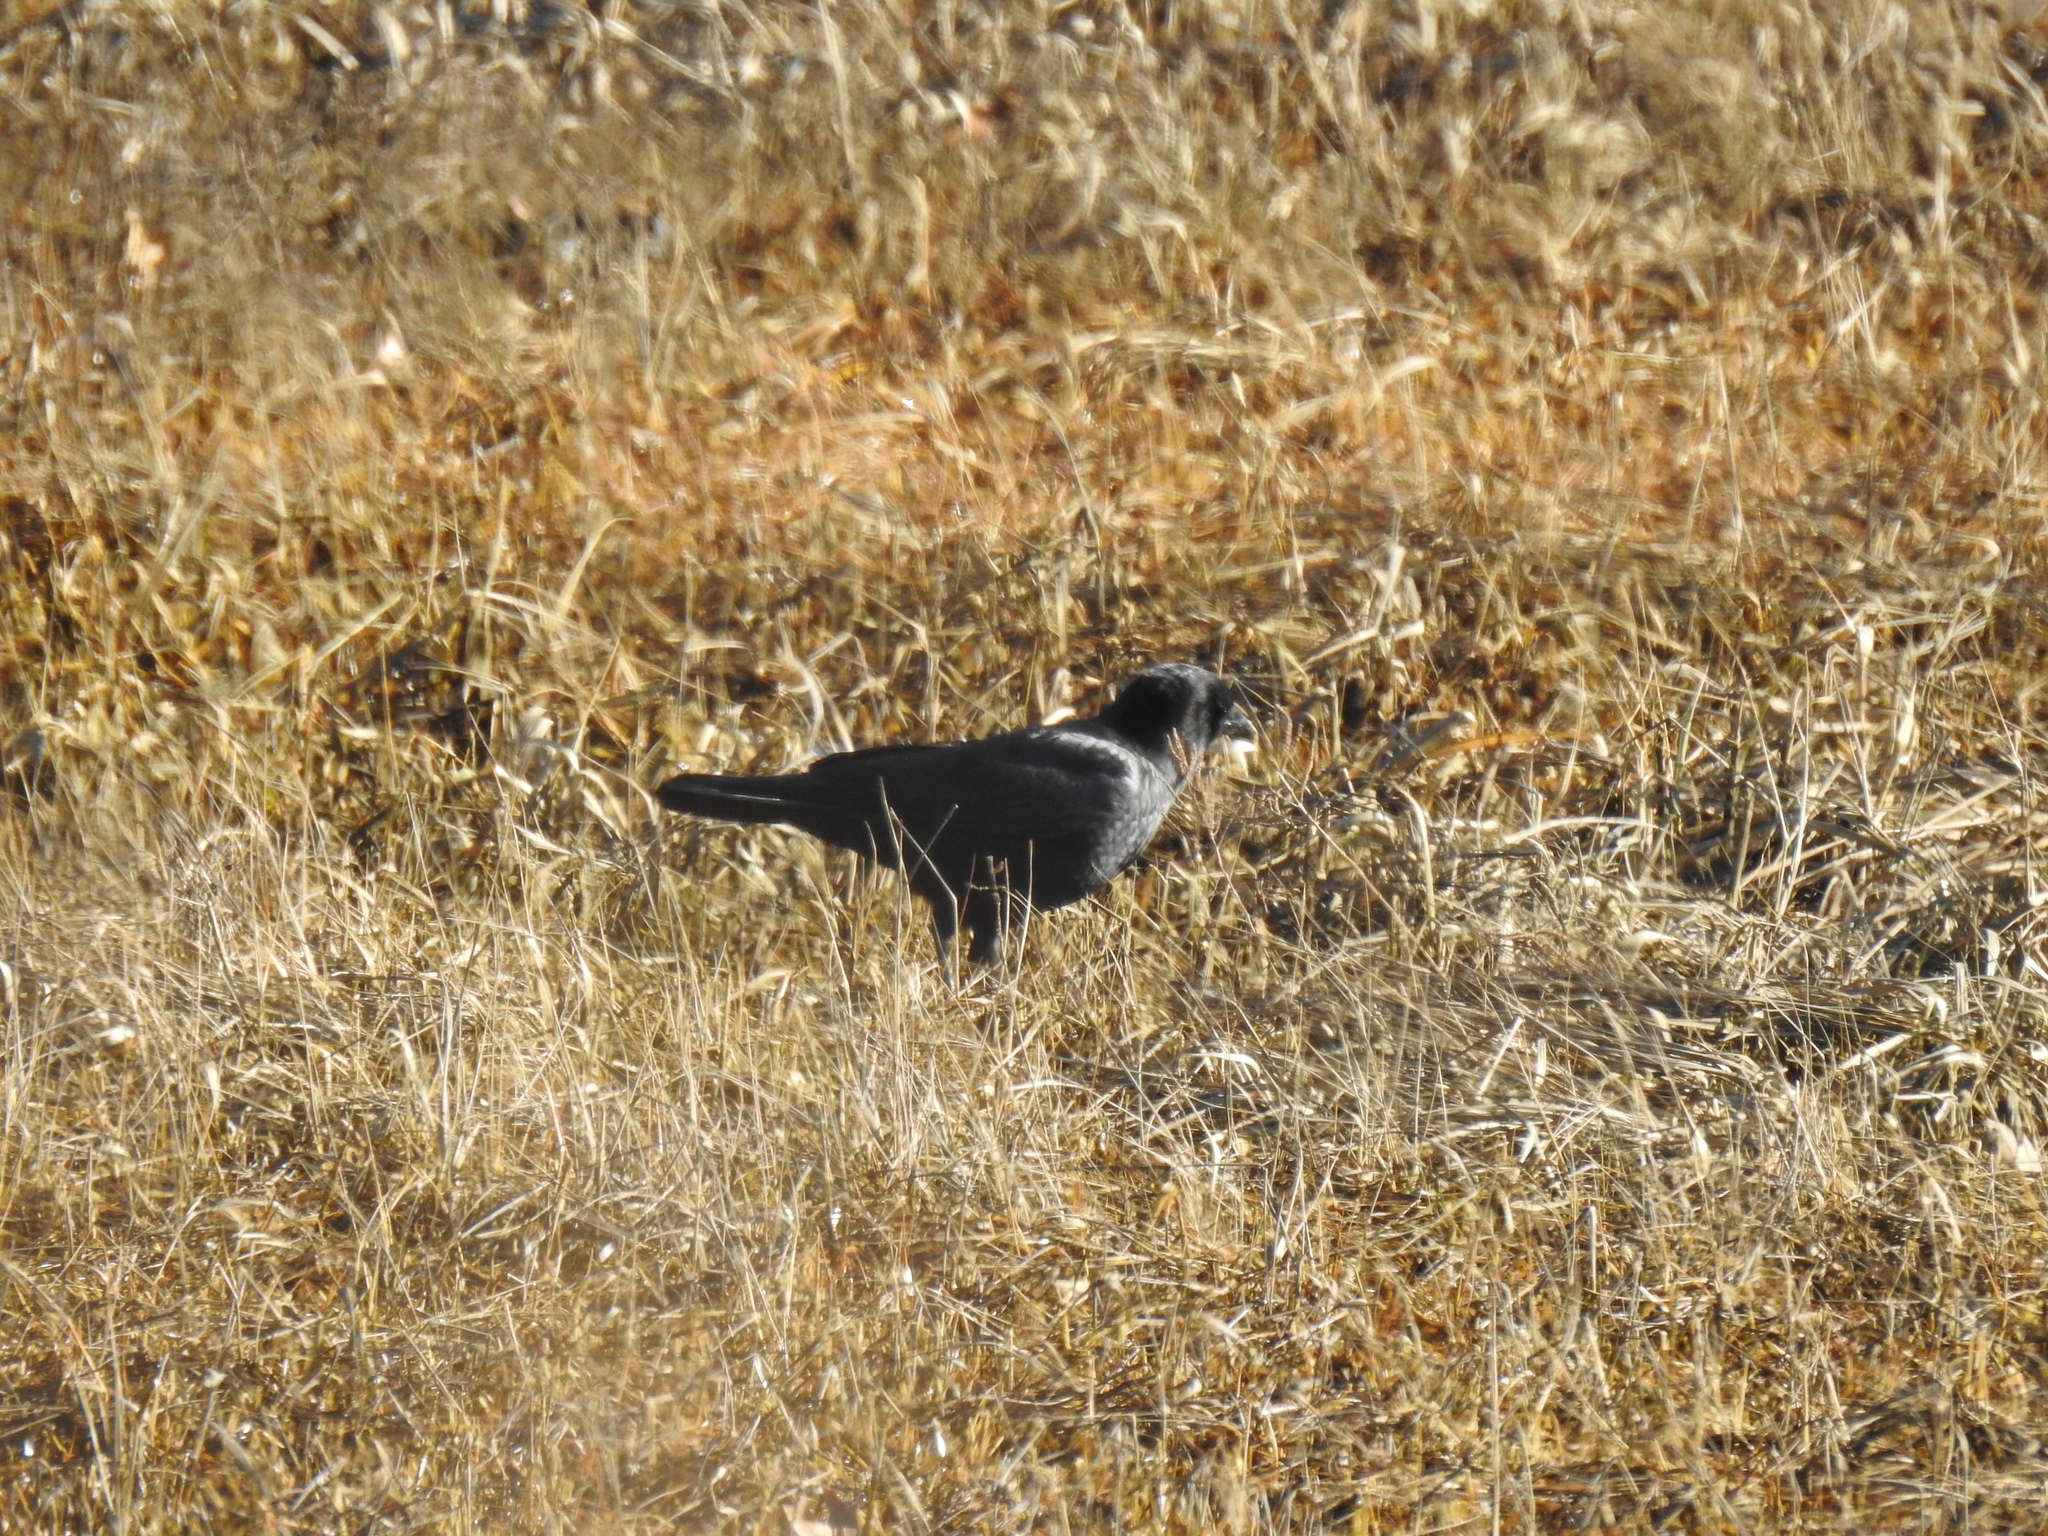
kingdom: Animalia
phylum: Chordata
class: Aves
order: Passeriformes
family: Corvidae
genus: Corvus
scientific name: Corvus brachyrhynchos
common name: American crow
